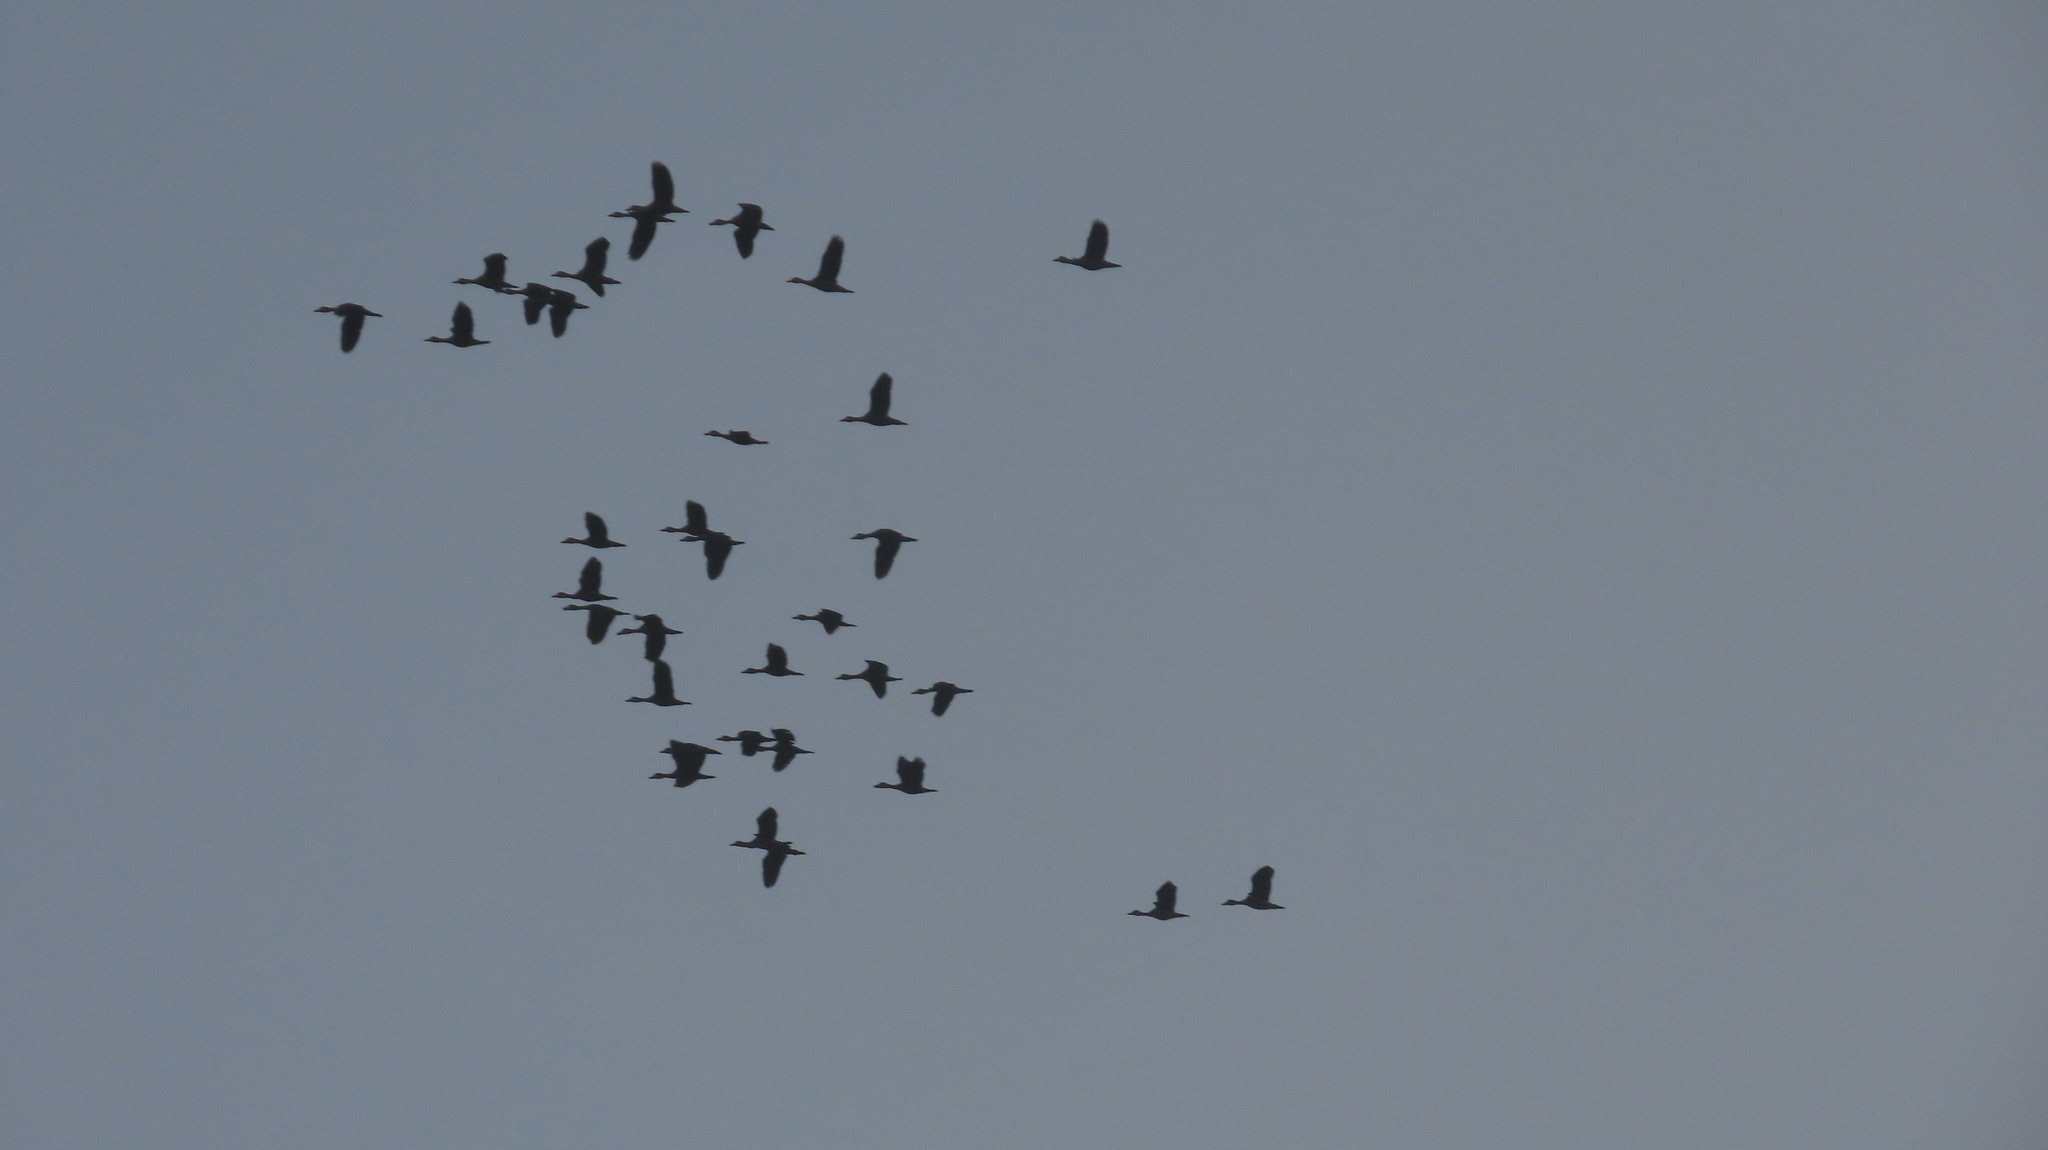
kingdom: Animalia
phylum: Chordata
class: Aves
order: Anseriformes
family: Anatidae
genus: Dendrocygna
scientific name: Dendrocygna javanica
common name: Lesser whistling-duck
